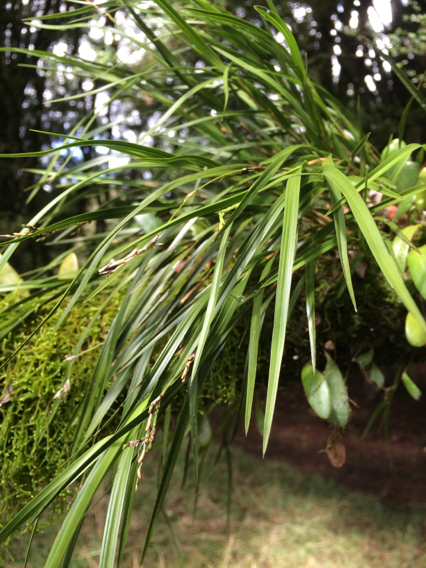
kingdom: Plantae
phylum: Tracheophyta
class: Liliopsida
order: Asparagales
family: Orchidaceae
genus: Earina
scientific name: Earina mucronata
